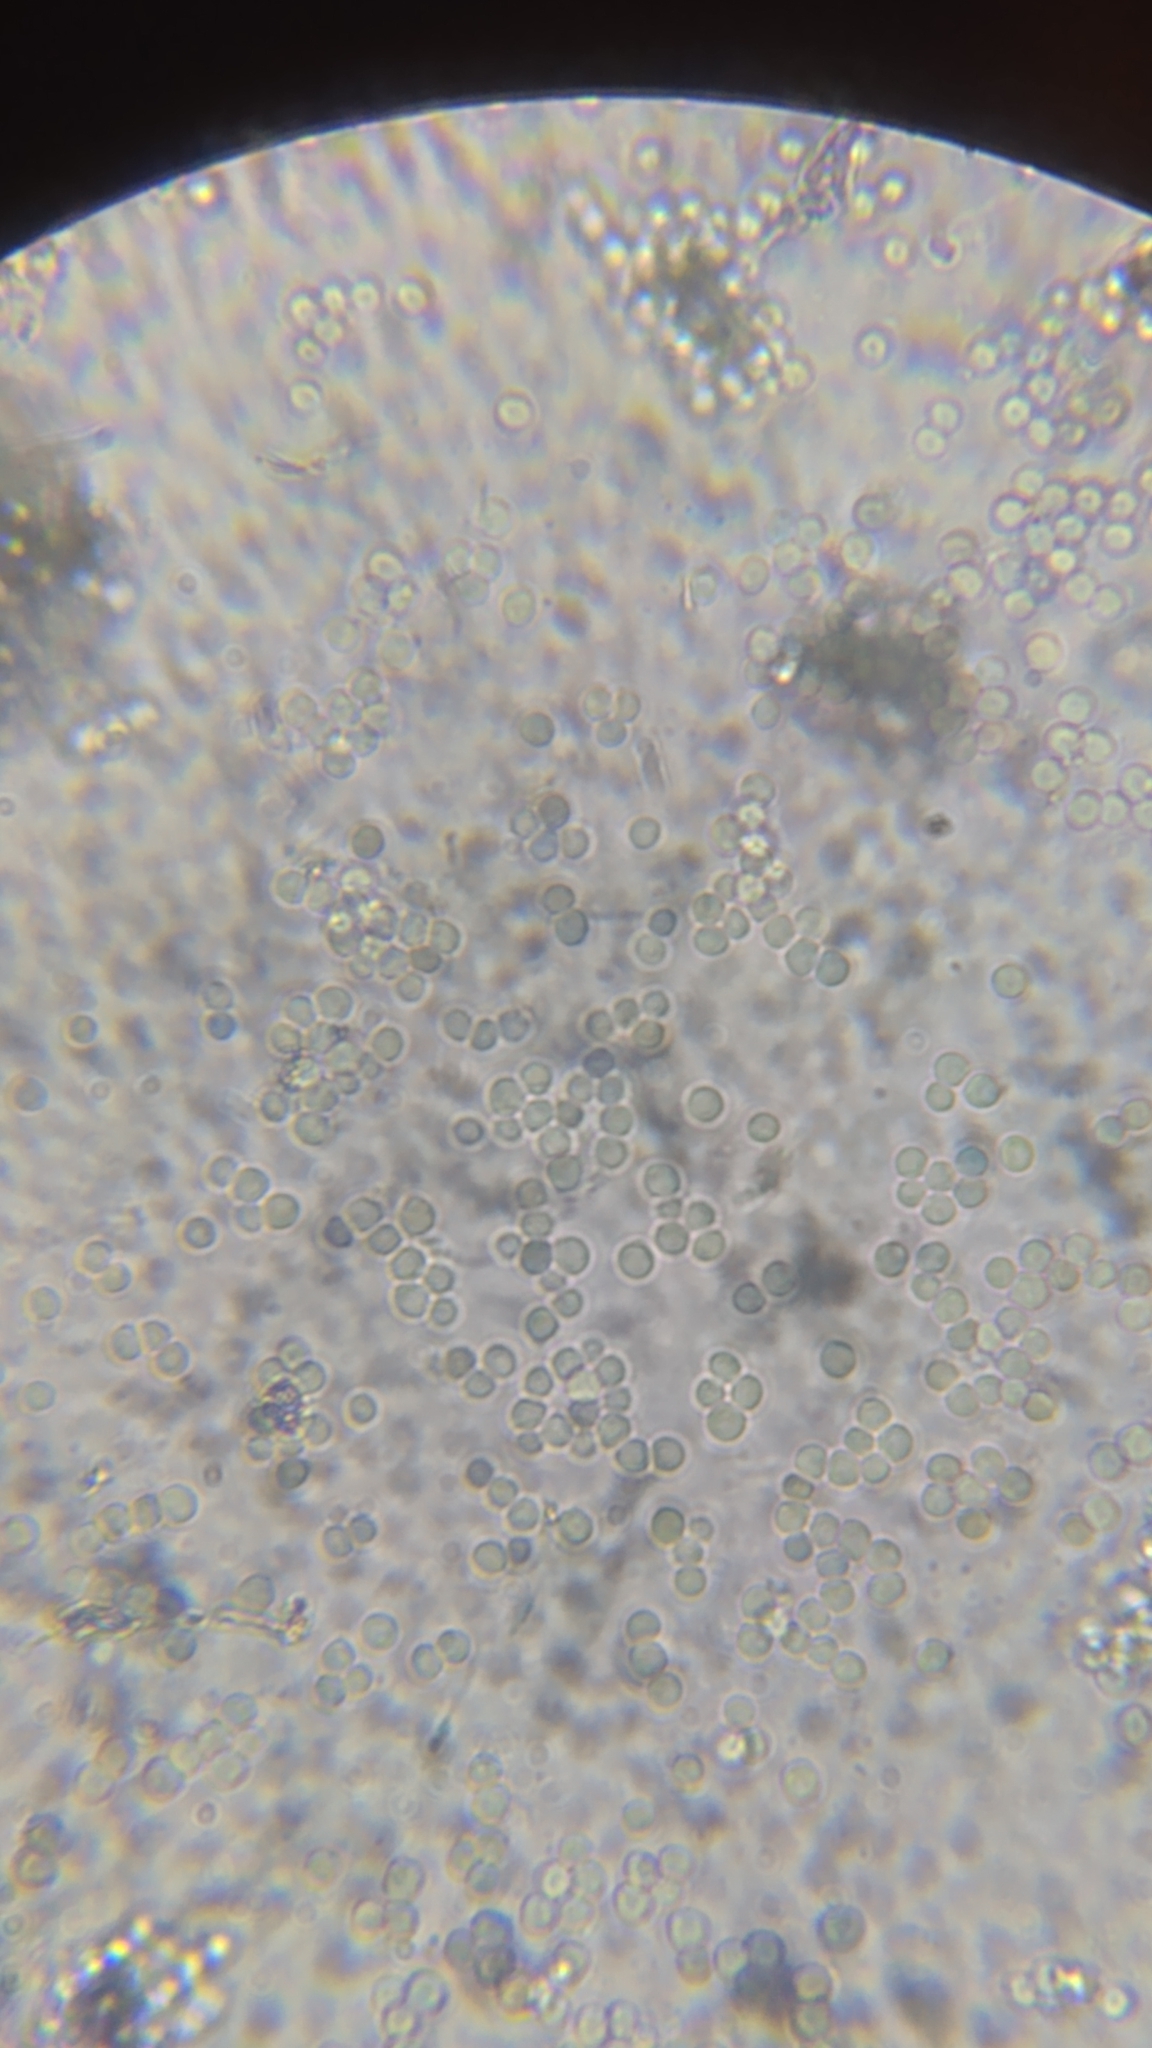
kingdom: Fungi
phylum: Ascomycota
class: Sordariomycetes
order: Hypocreales
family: Cordycipitaceae
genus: Beauveria
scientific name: Beauveria bassiana
